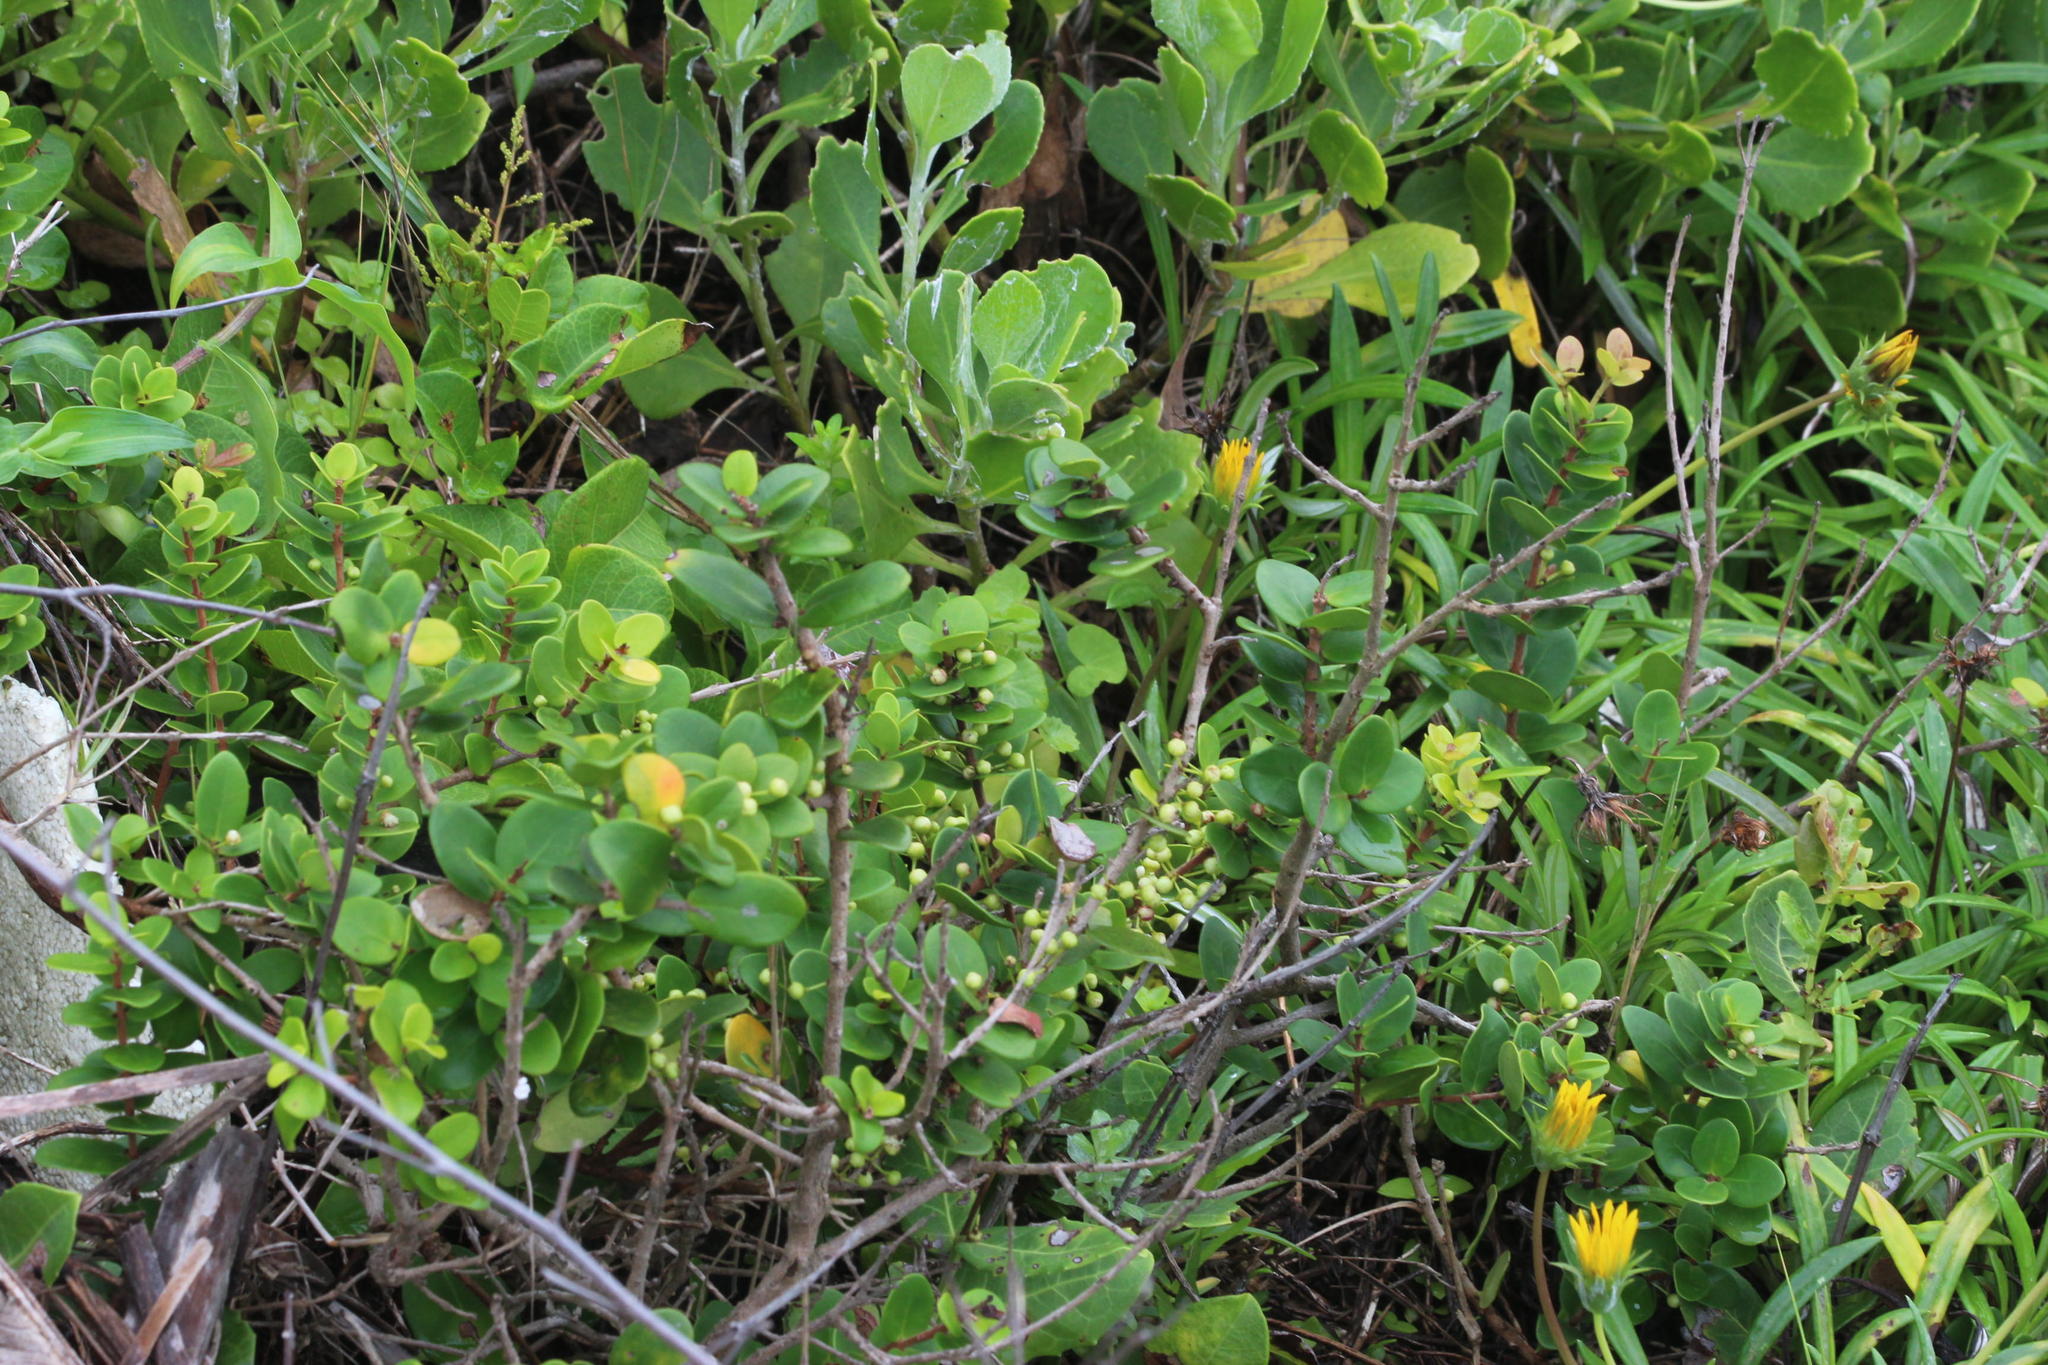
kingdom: Plantae
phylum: Tracheophyta
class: Magnoliopsida
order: Myrtales
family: Myrtaceae
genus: Eugenia
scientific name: Eugenia capensis
